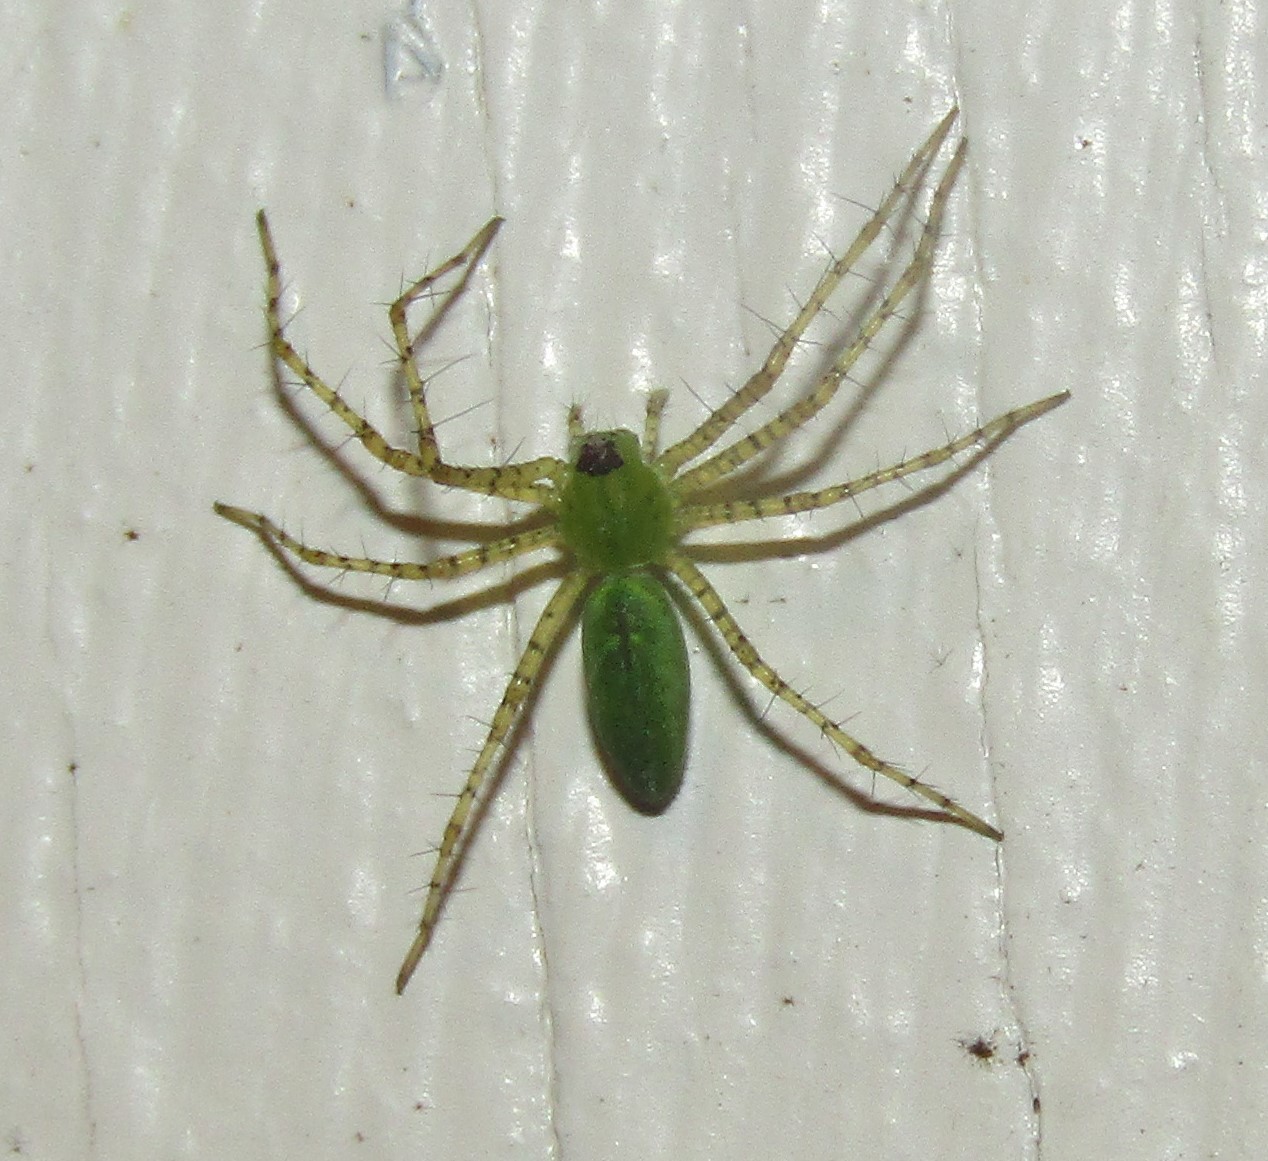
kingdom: Animalia
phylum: Arthropoda
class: Arachnida
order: Araneae
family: Oxyopidae
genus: Peucetia
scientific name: Peucetia viridans
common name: Lynx spiders
